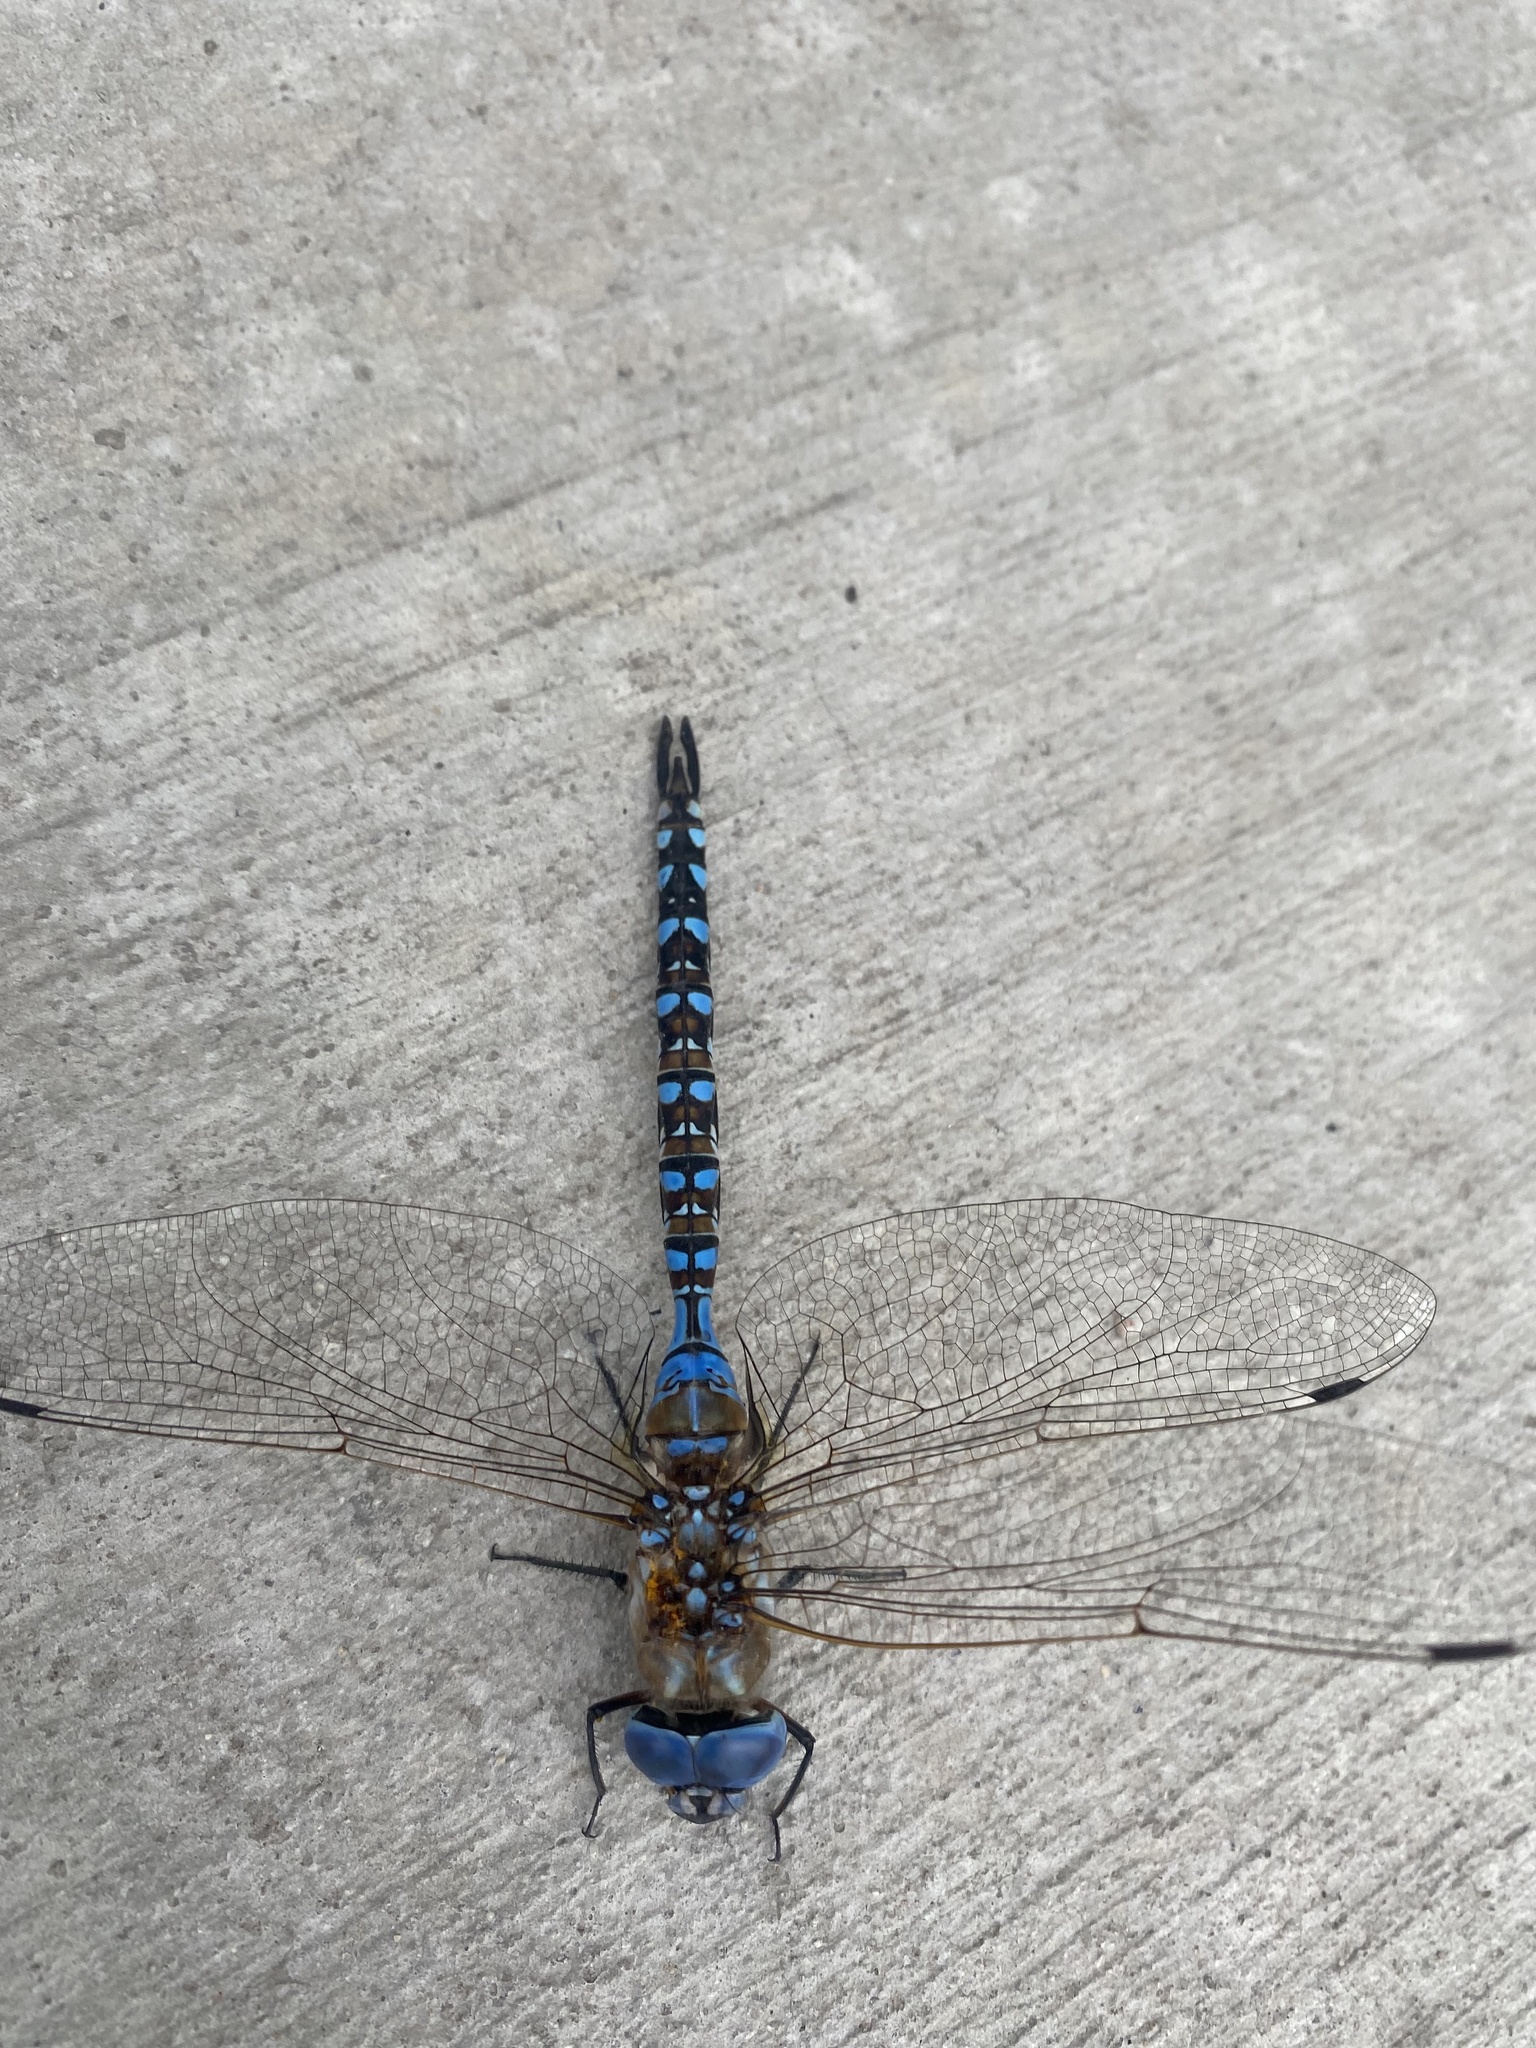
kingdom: Animalia
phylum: Arthropoda
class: Insecta
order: Odonata
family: Aeshnidae
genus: Rhionaeschna
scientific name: Rhionaeschna multicolor
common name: Blue-eyed darner
